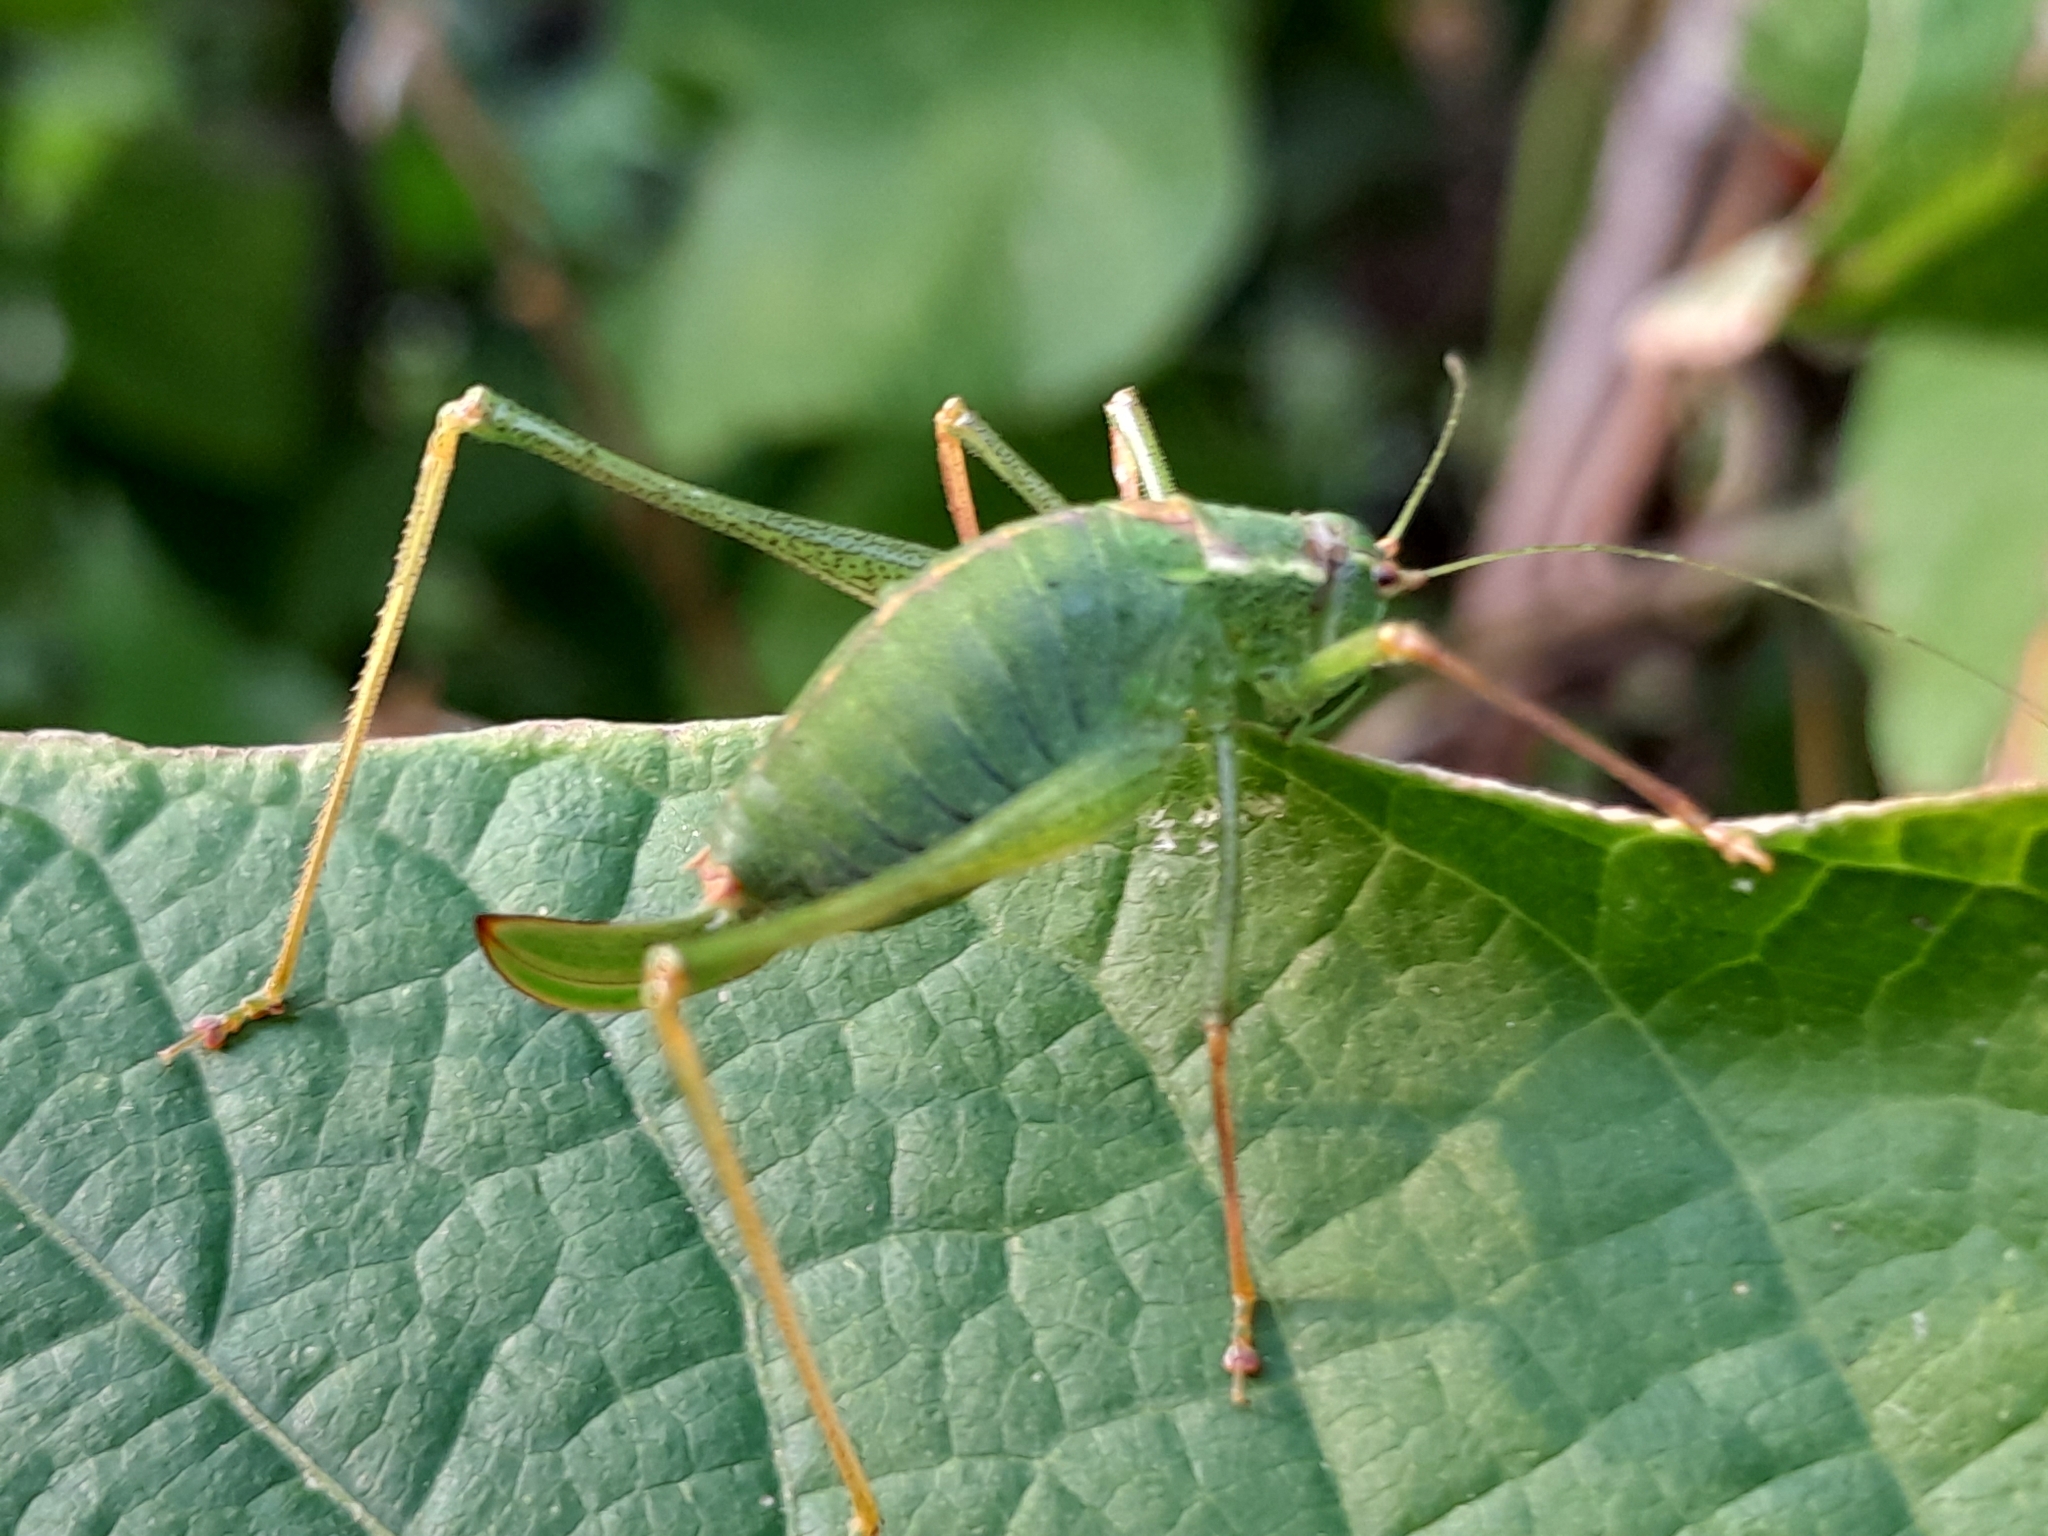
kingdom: Animalia
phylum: Arthropoda
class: Insecta
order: Orthoptera
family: Tettigoniidae
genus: Leptophyes
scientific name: Leptophyes punctatissima
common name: Speckled bush-cricket
